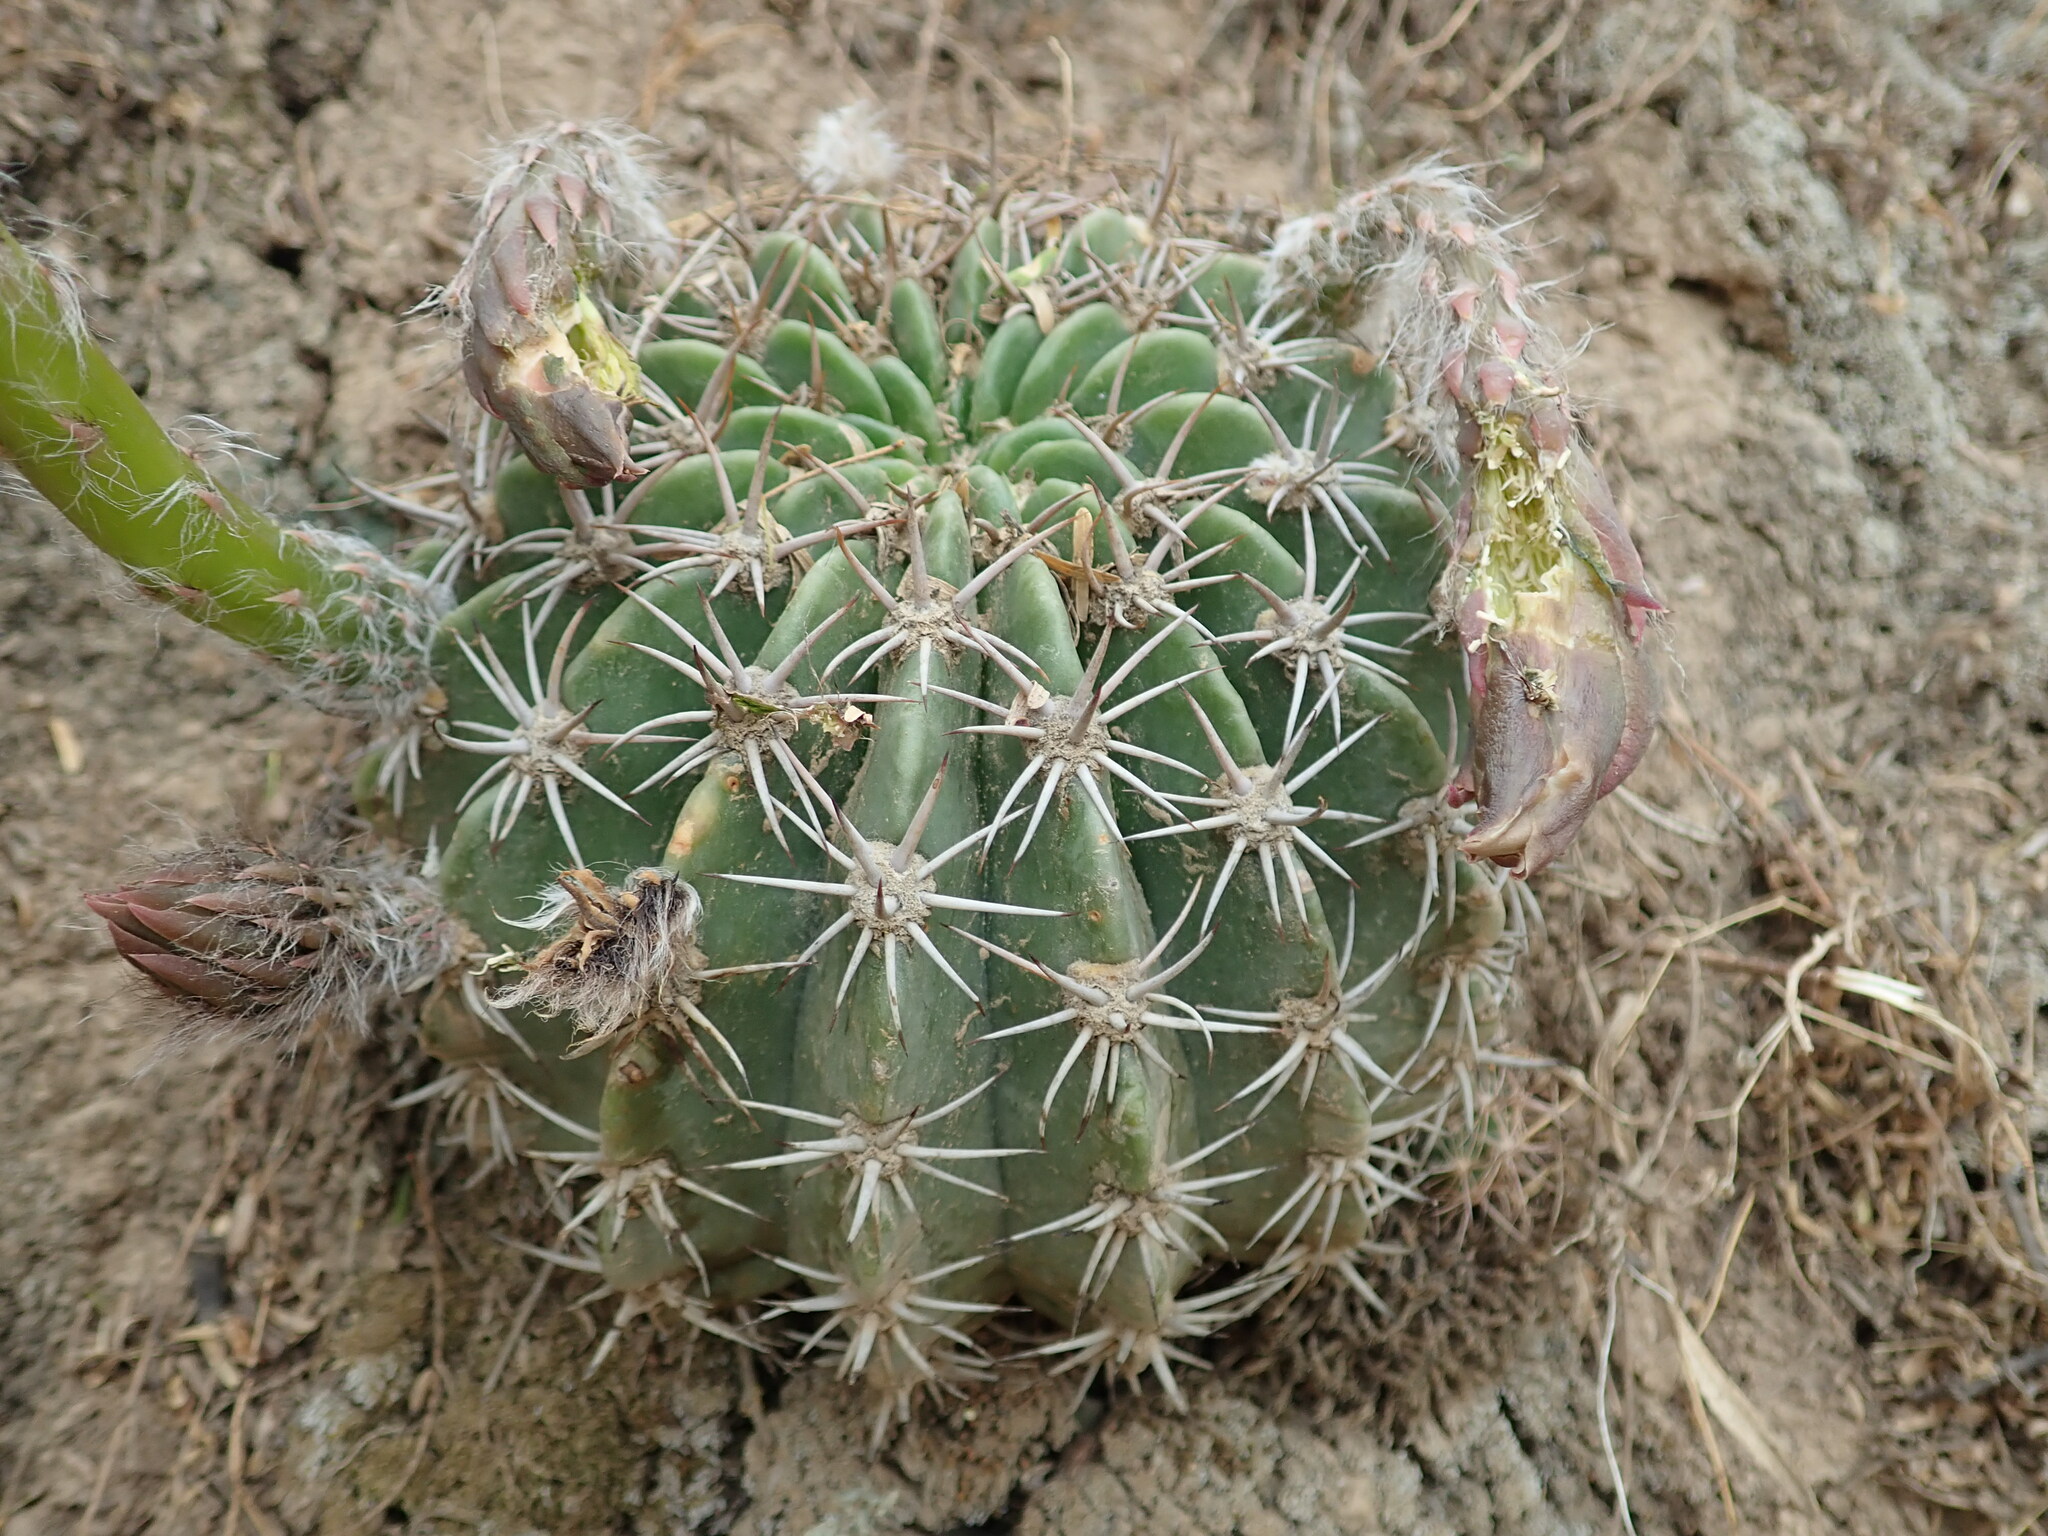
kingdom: Plantae
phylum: Tracheophyta
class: Magnoliopsida
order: Caryophyllales
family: Cactaceae
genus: Lobivia
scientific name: Lobivia pamparuizii
